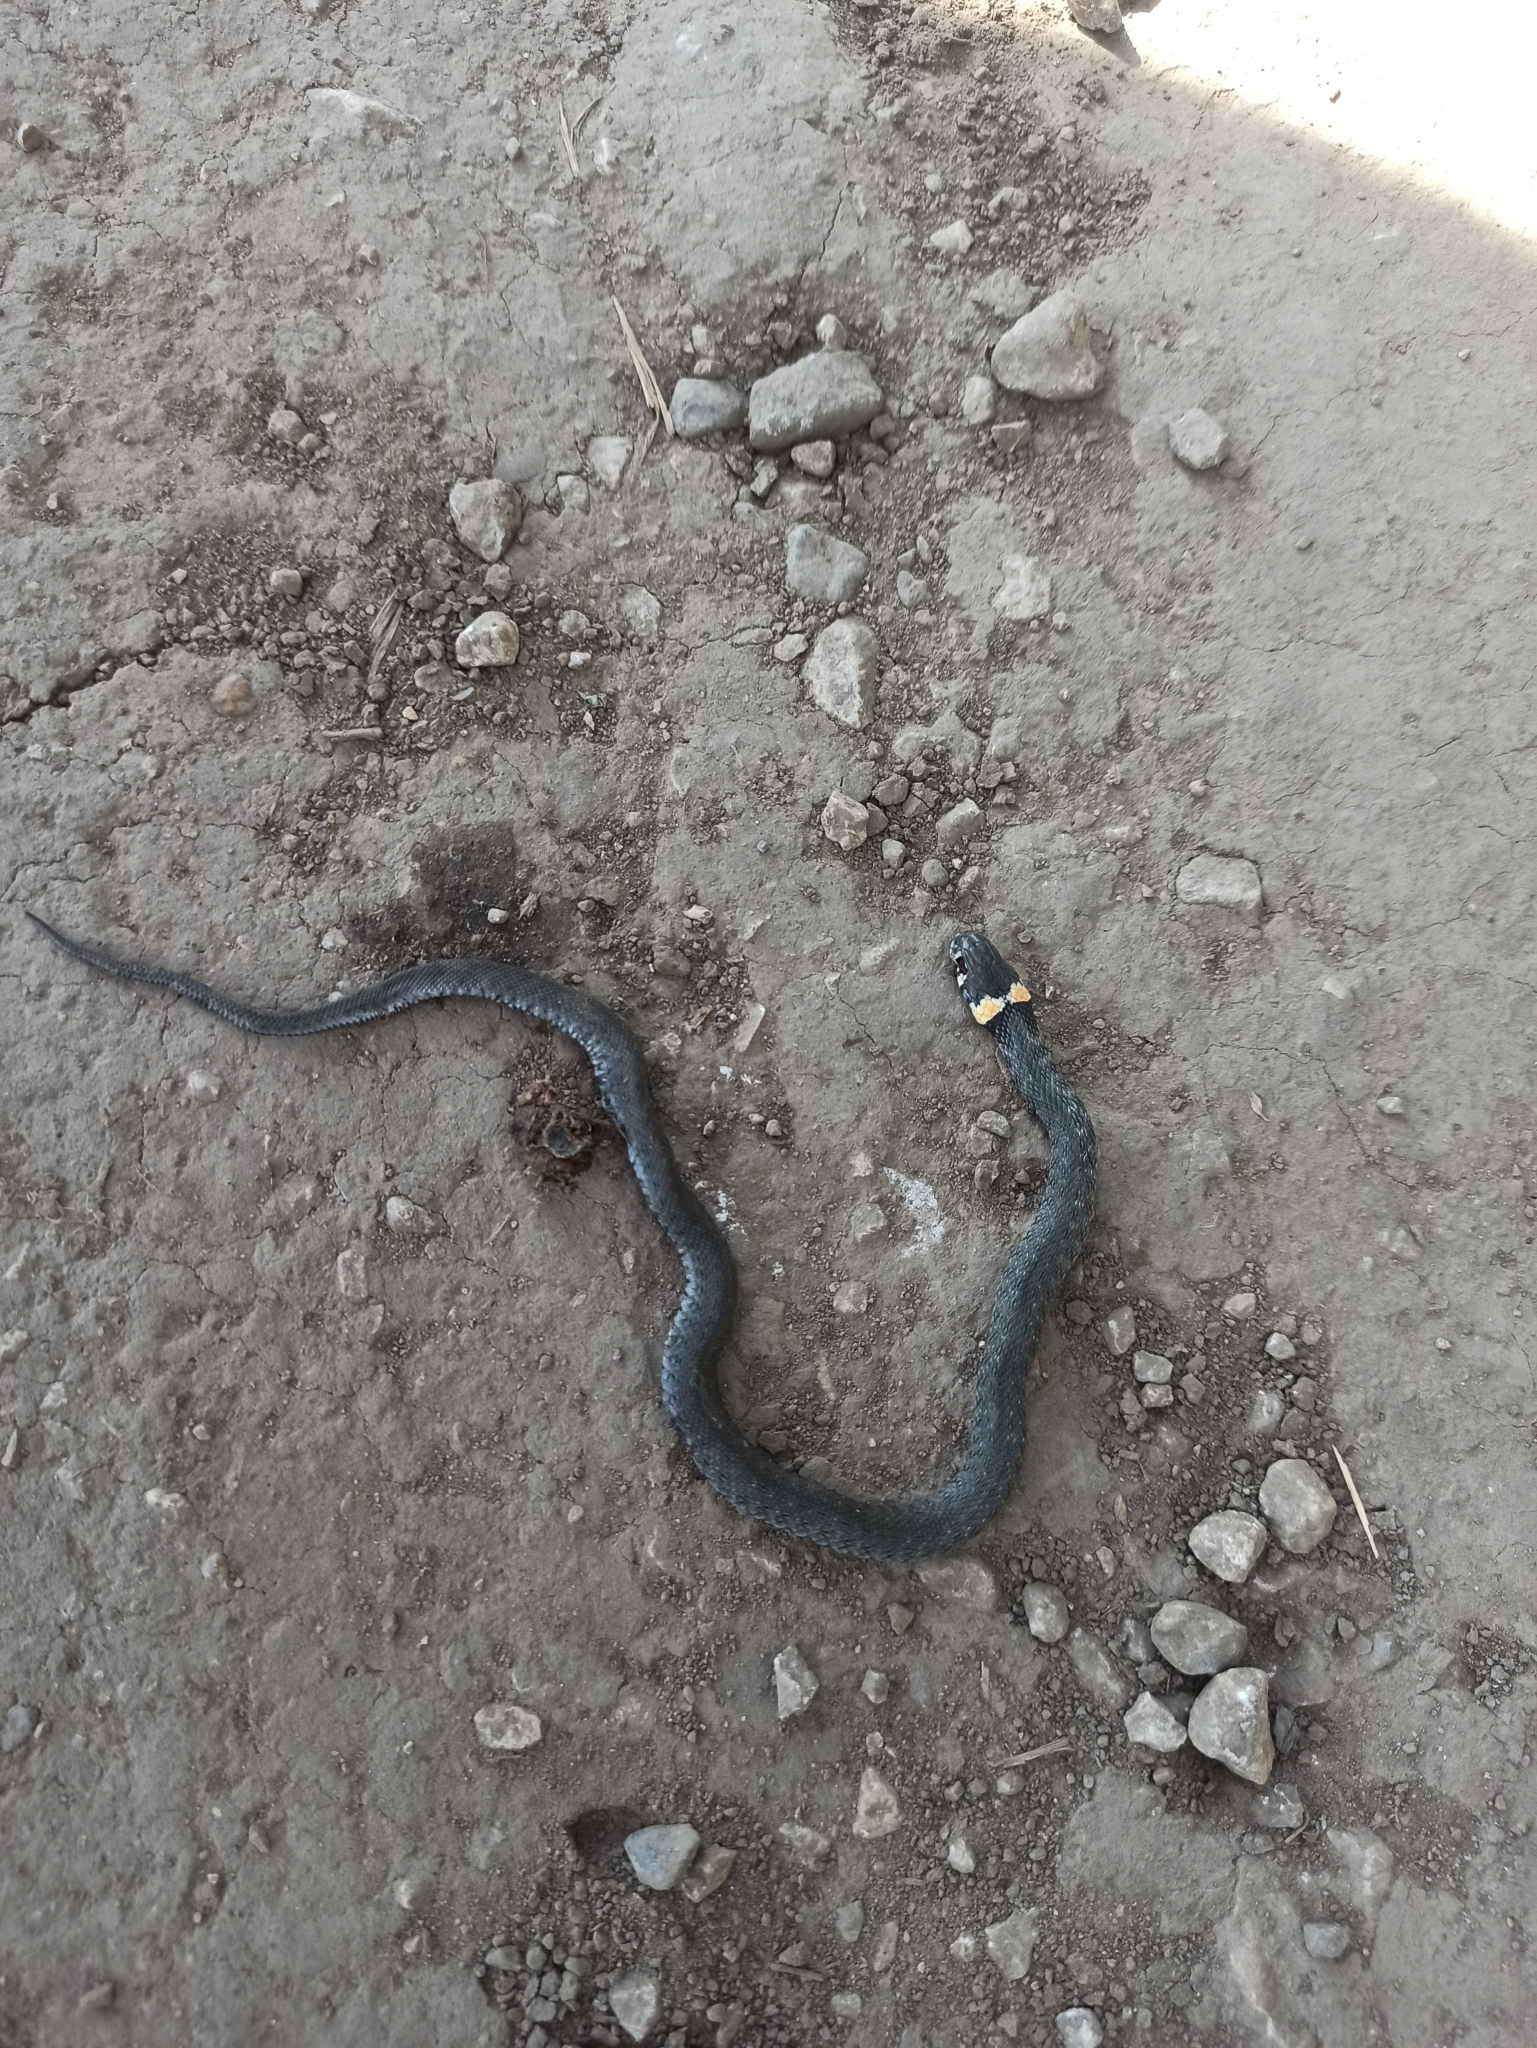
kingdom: Animalia
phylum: Chordata
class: Squamata
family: Colubridae
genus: Natrix
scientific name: Natrix natrix
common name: Grass snake
